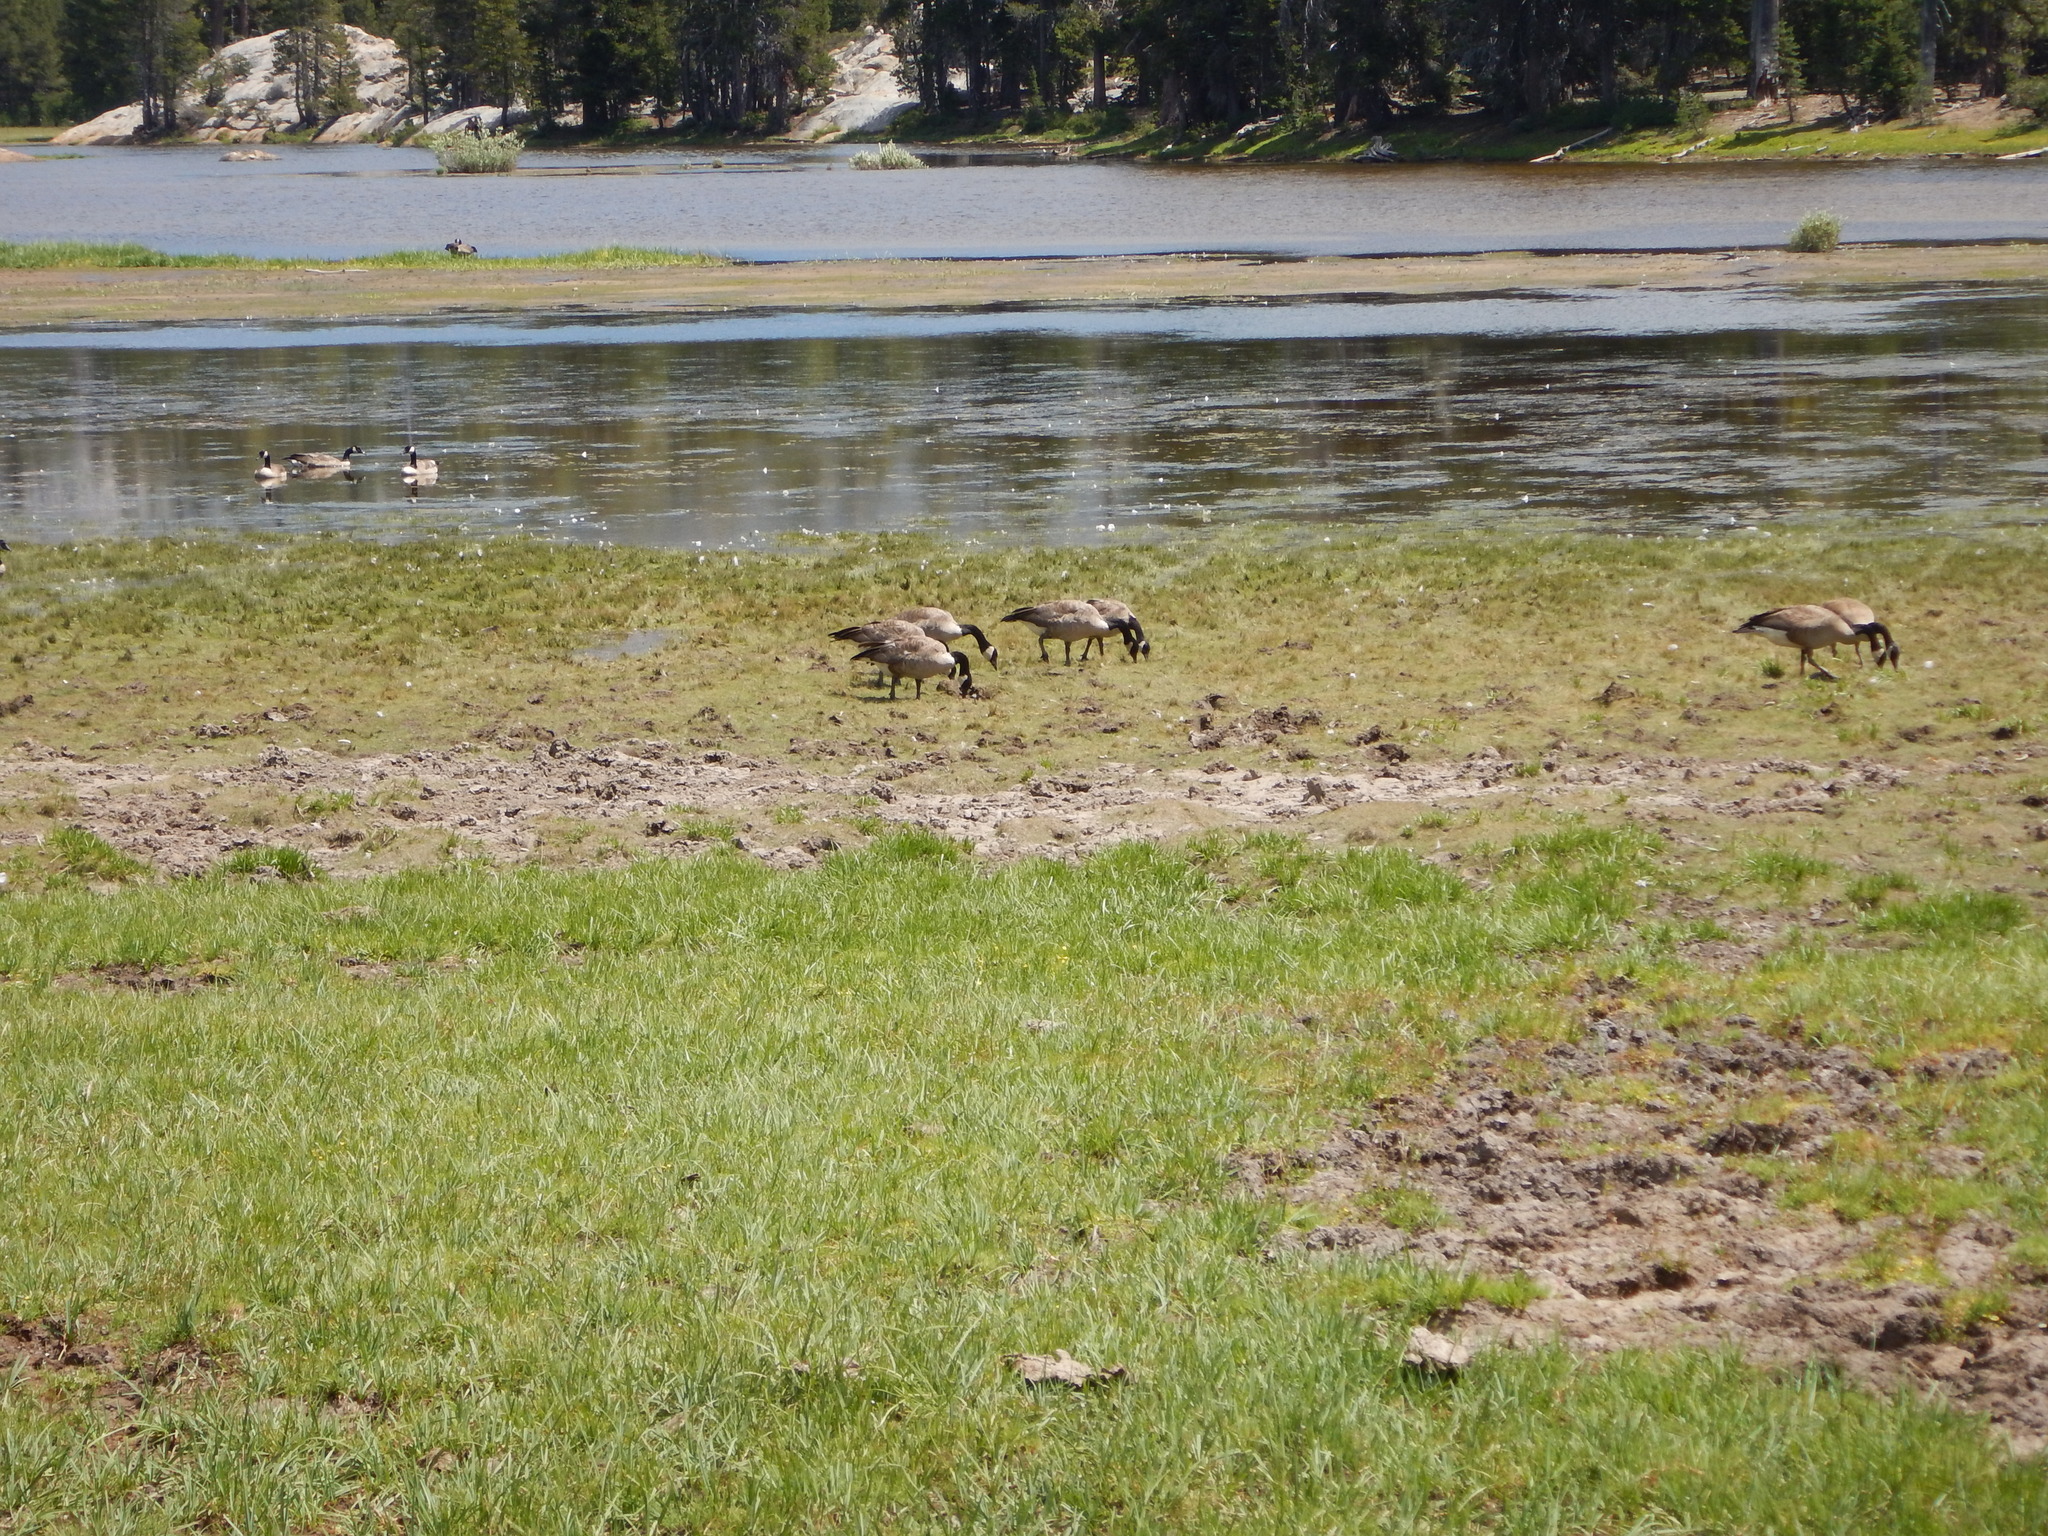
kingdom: Animalia
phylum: Chordata
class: Aves
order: Anseriformes
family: Anatidae
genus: Branta
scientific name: Branta canadensis
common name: Canada goose
